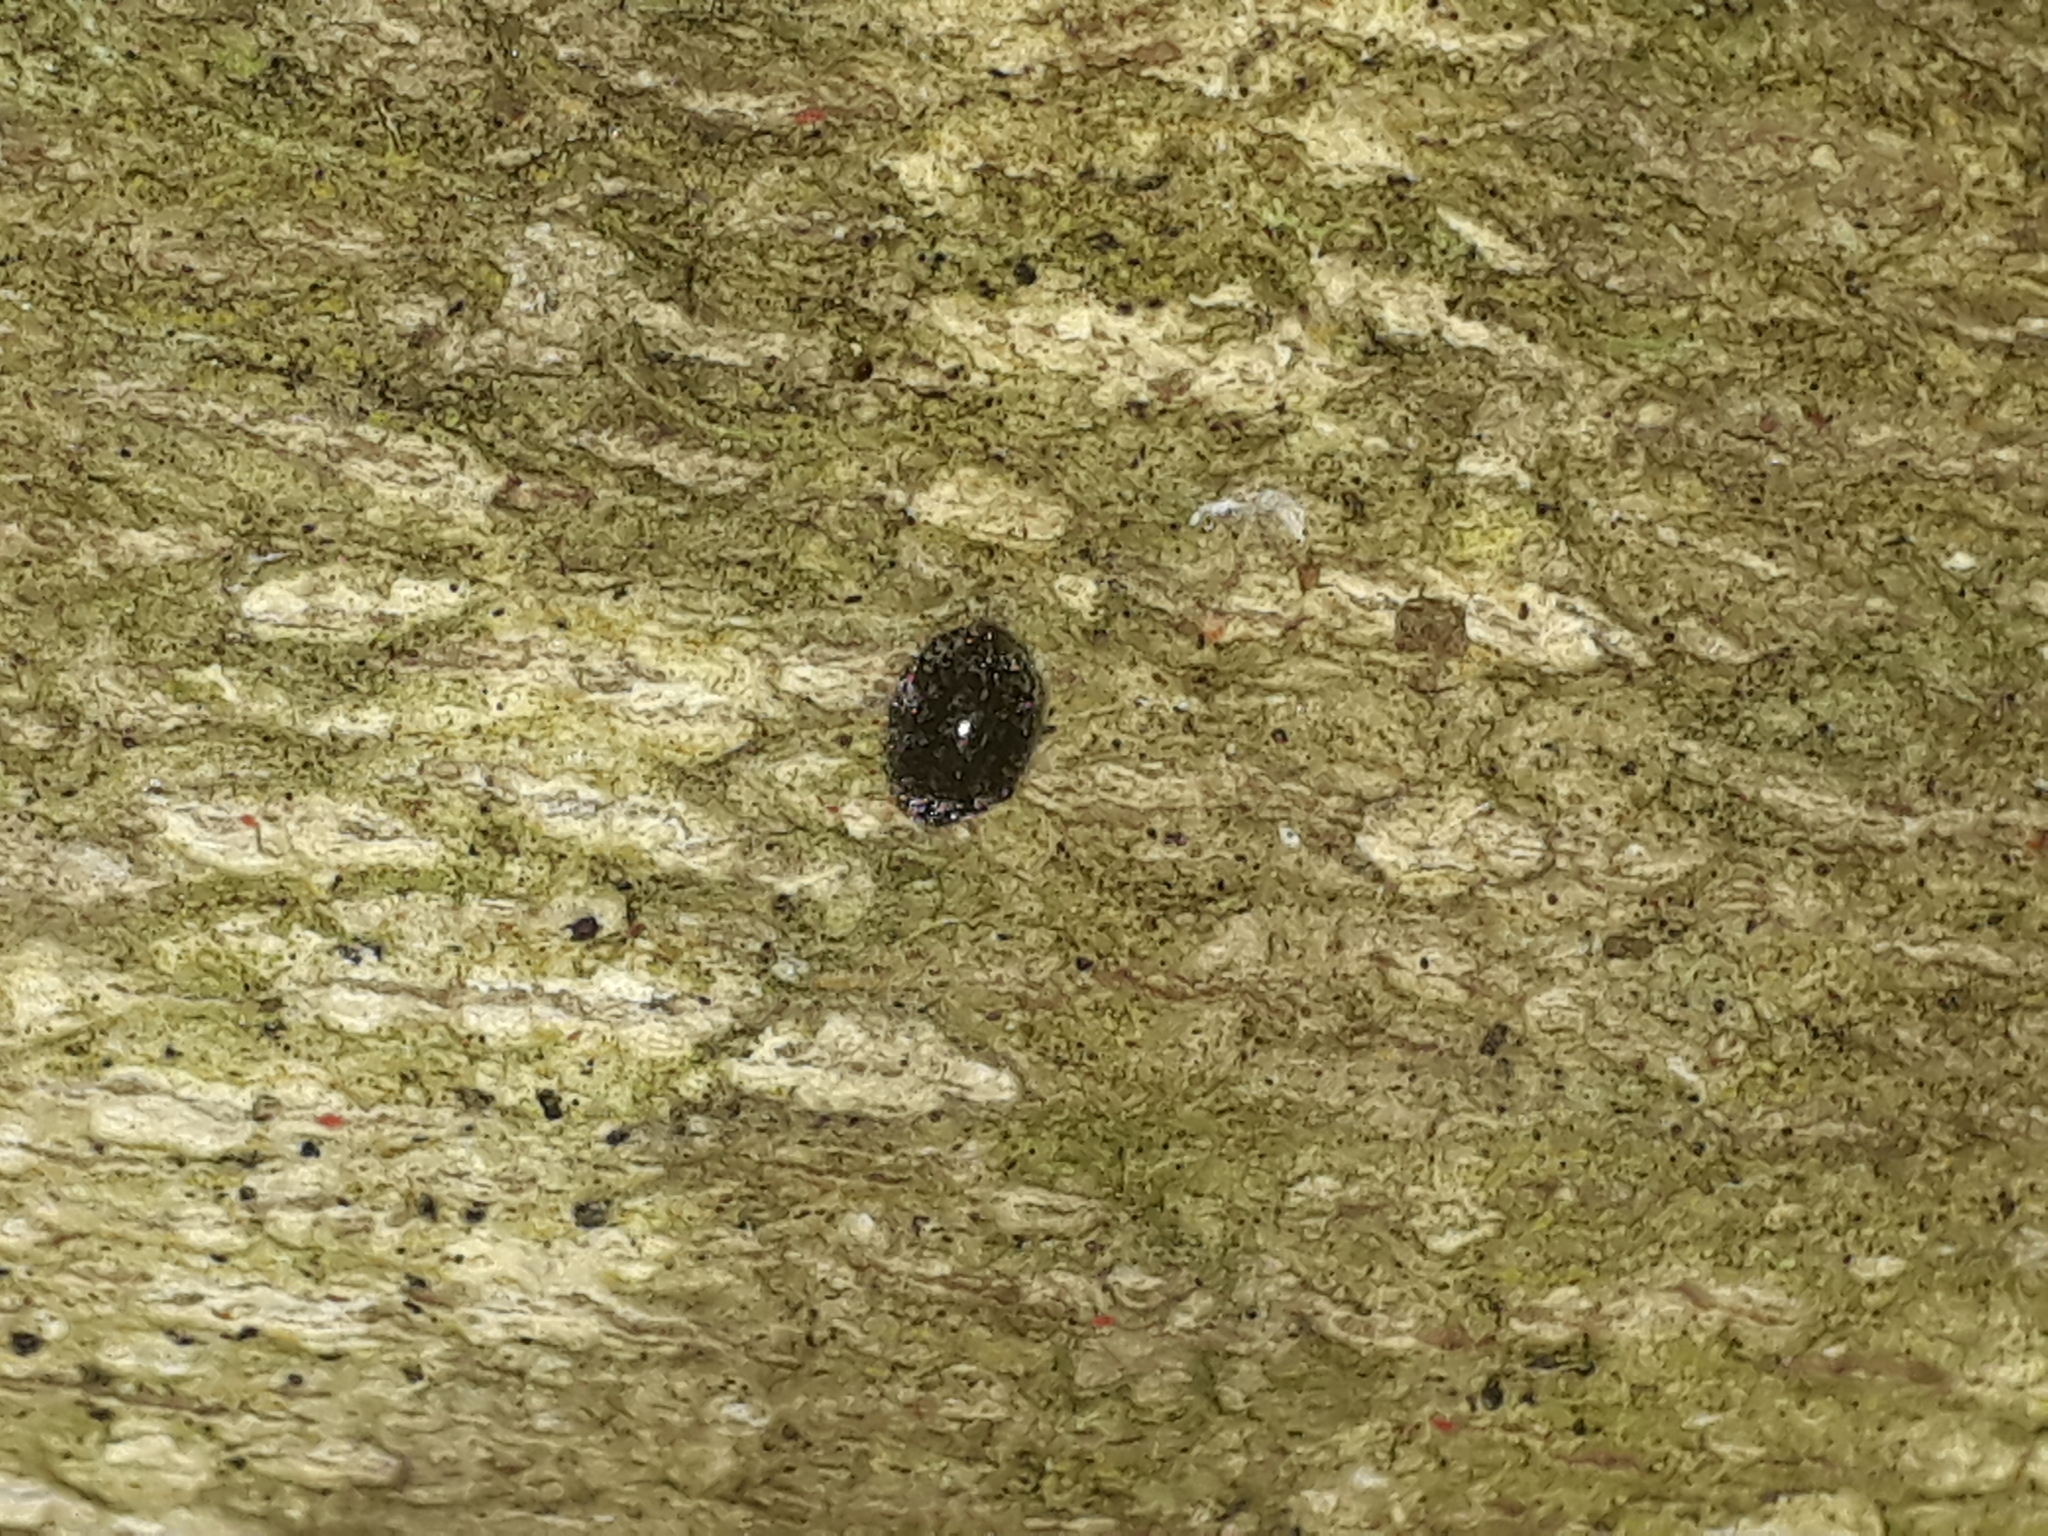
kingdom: Animalia
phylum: Arthropoda
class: Insecta
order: Coleoptera
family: Coccinellidae
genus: Rhyzobius
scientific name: Rhyzobius fagus
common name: Lady beetle
